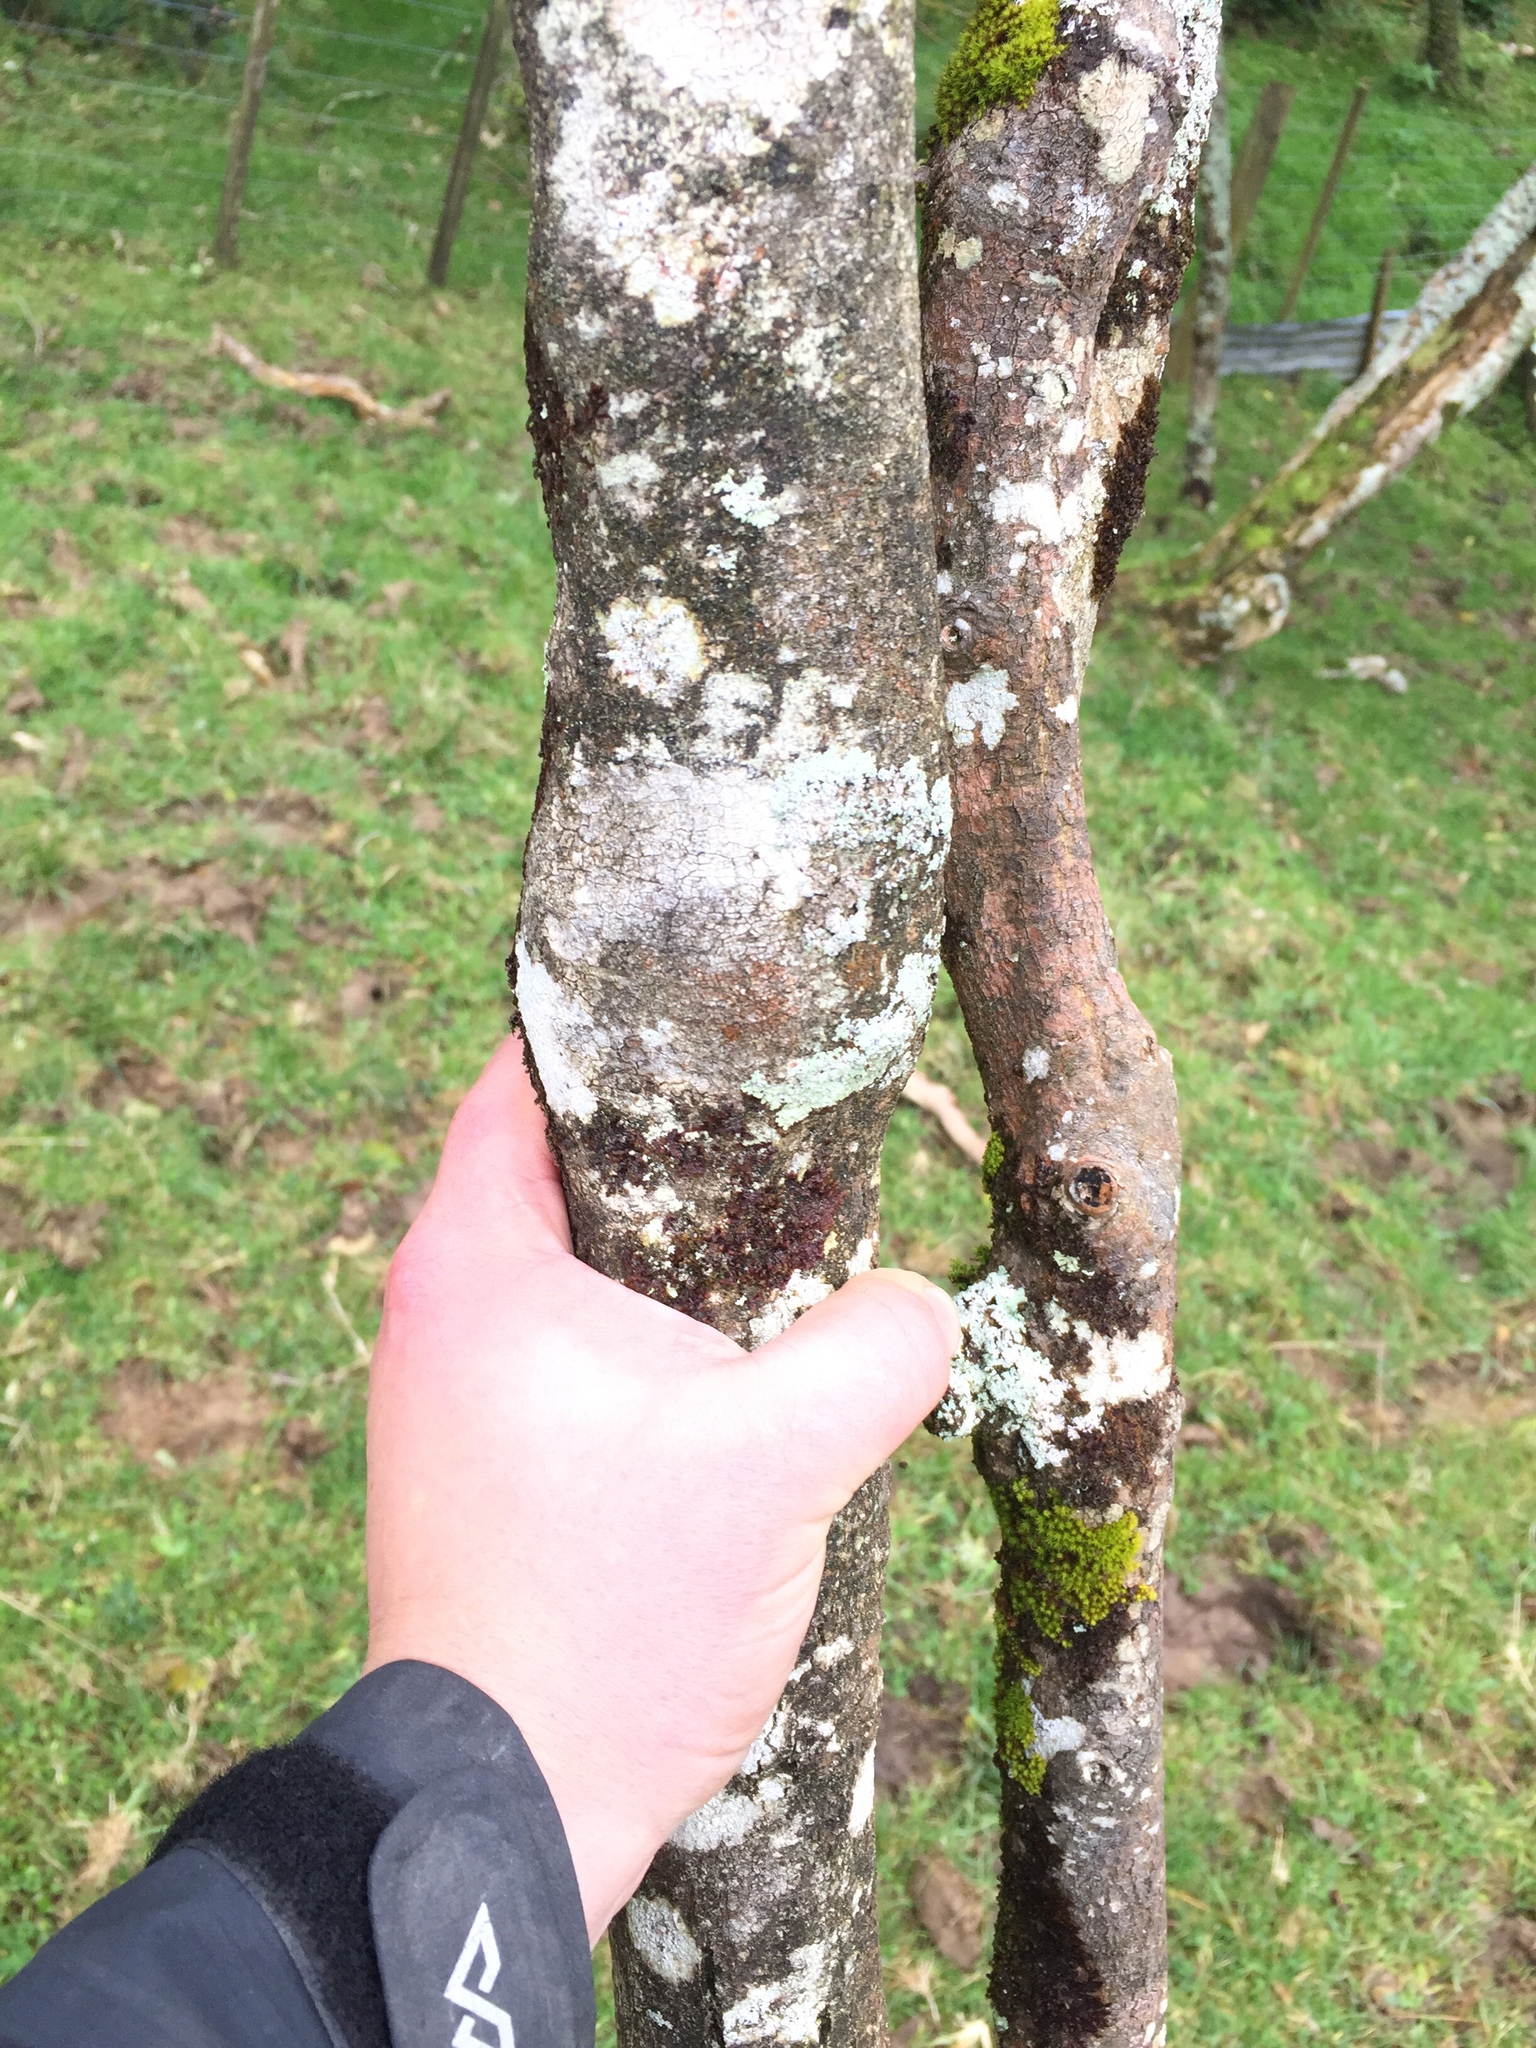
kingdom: Plantae
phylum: Tracheophyta
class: Magnoliopsida
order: Gentianales
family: Rubiaceae
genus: Coprosma
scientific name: Coprosma areolata
